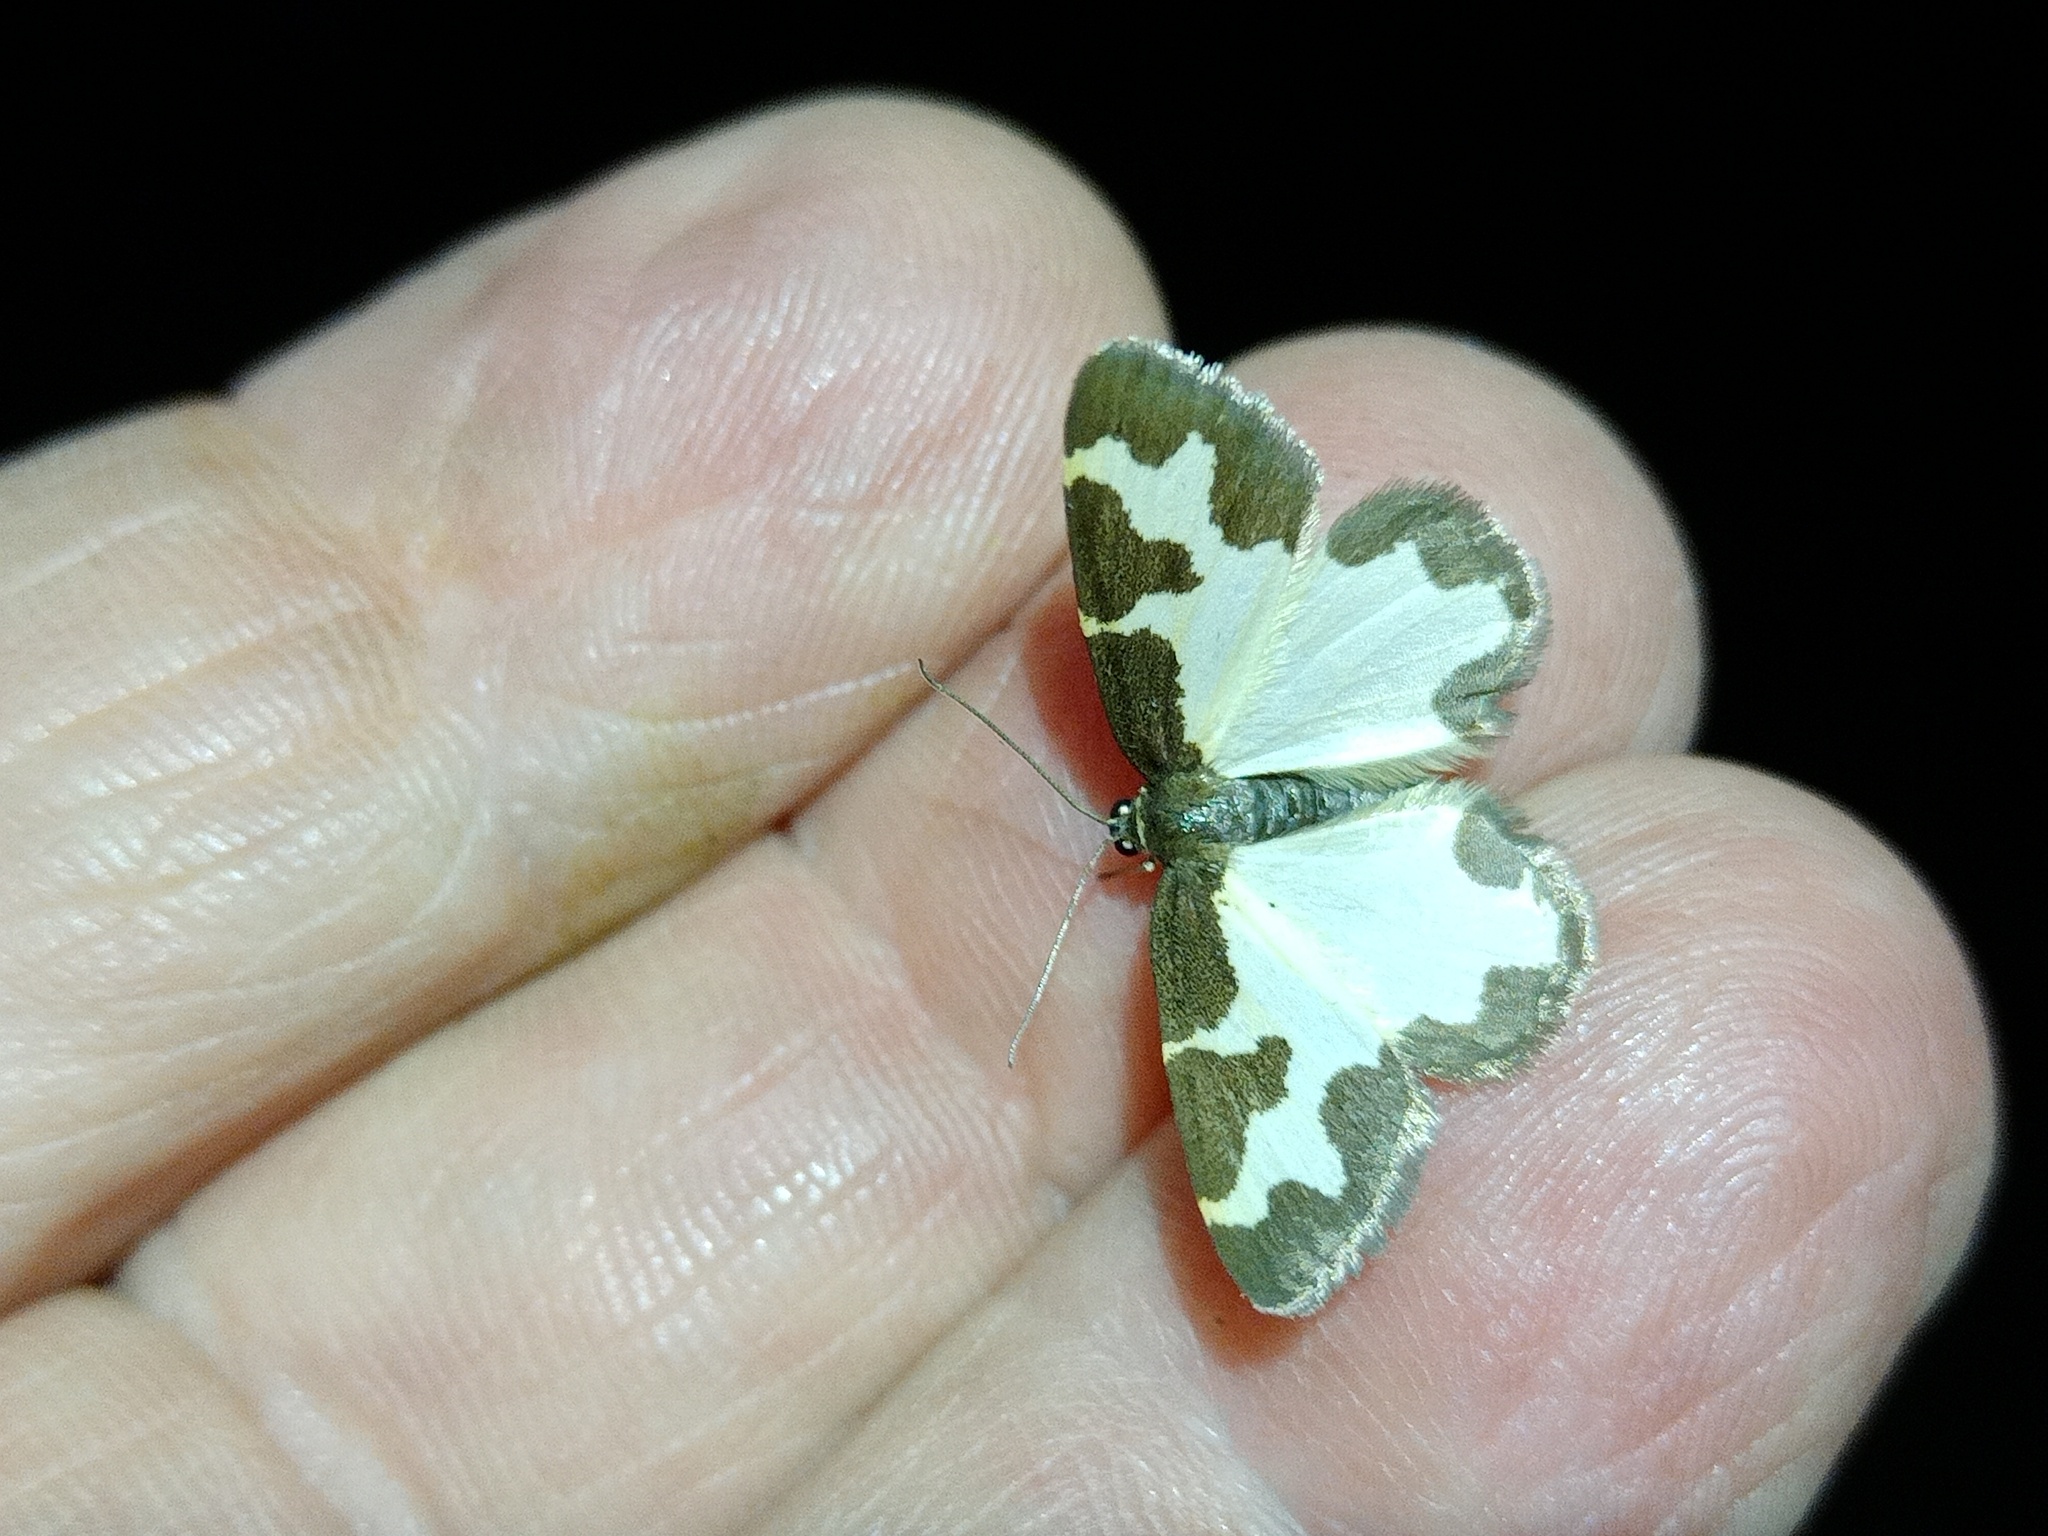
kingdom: Animalia
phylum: Arthropoda
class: Insecta
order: Lepidoptera
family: Geometridae
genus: Lomaspilis
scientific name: Lomaspilis marginata
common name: Clouded border
